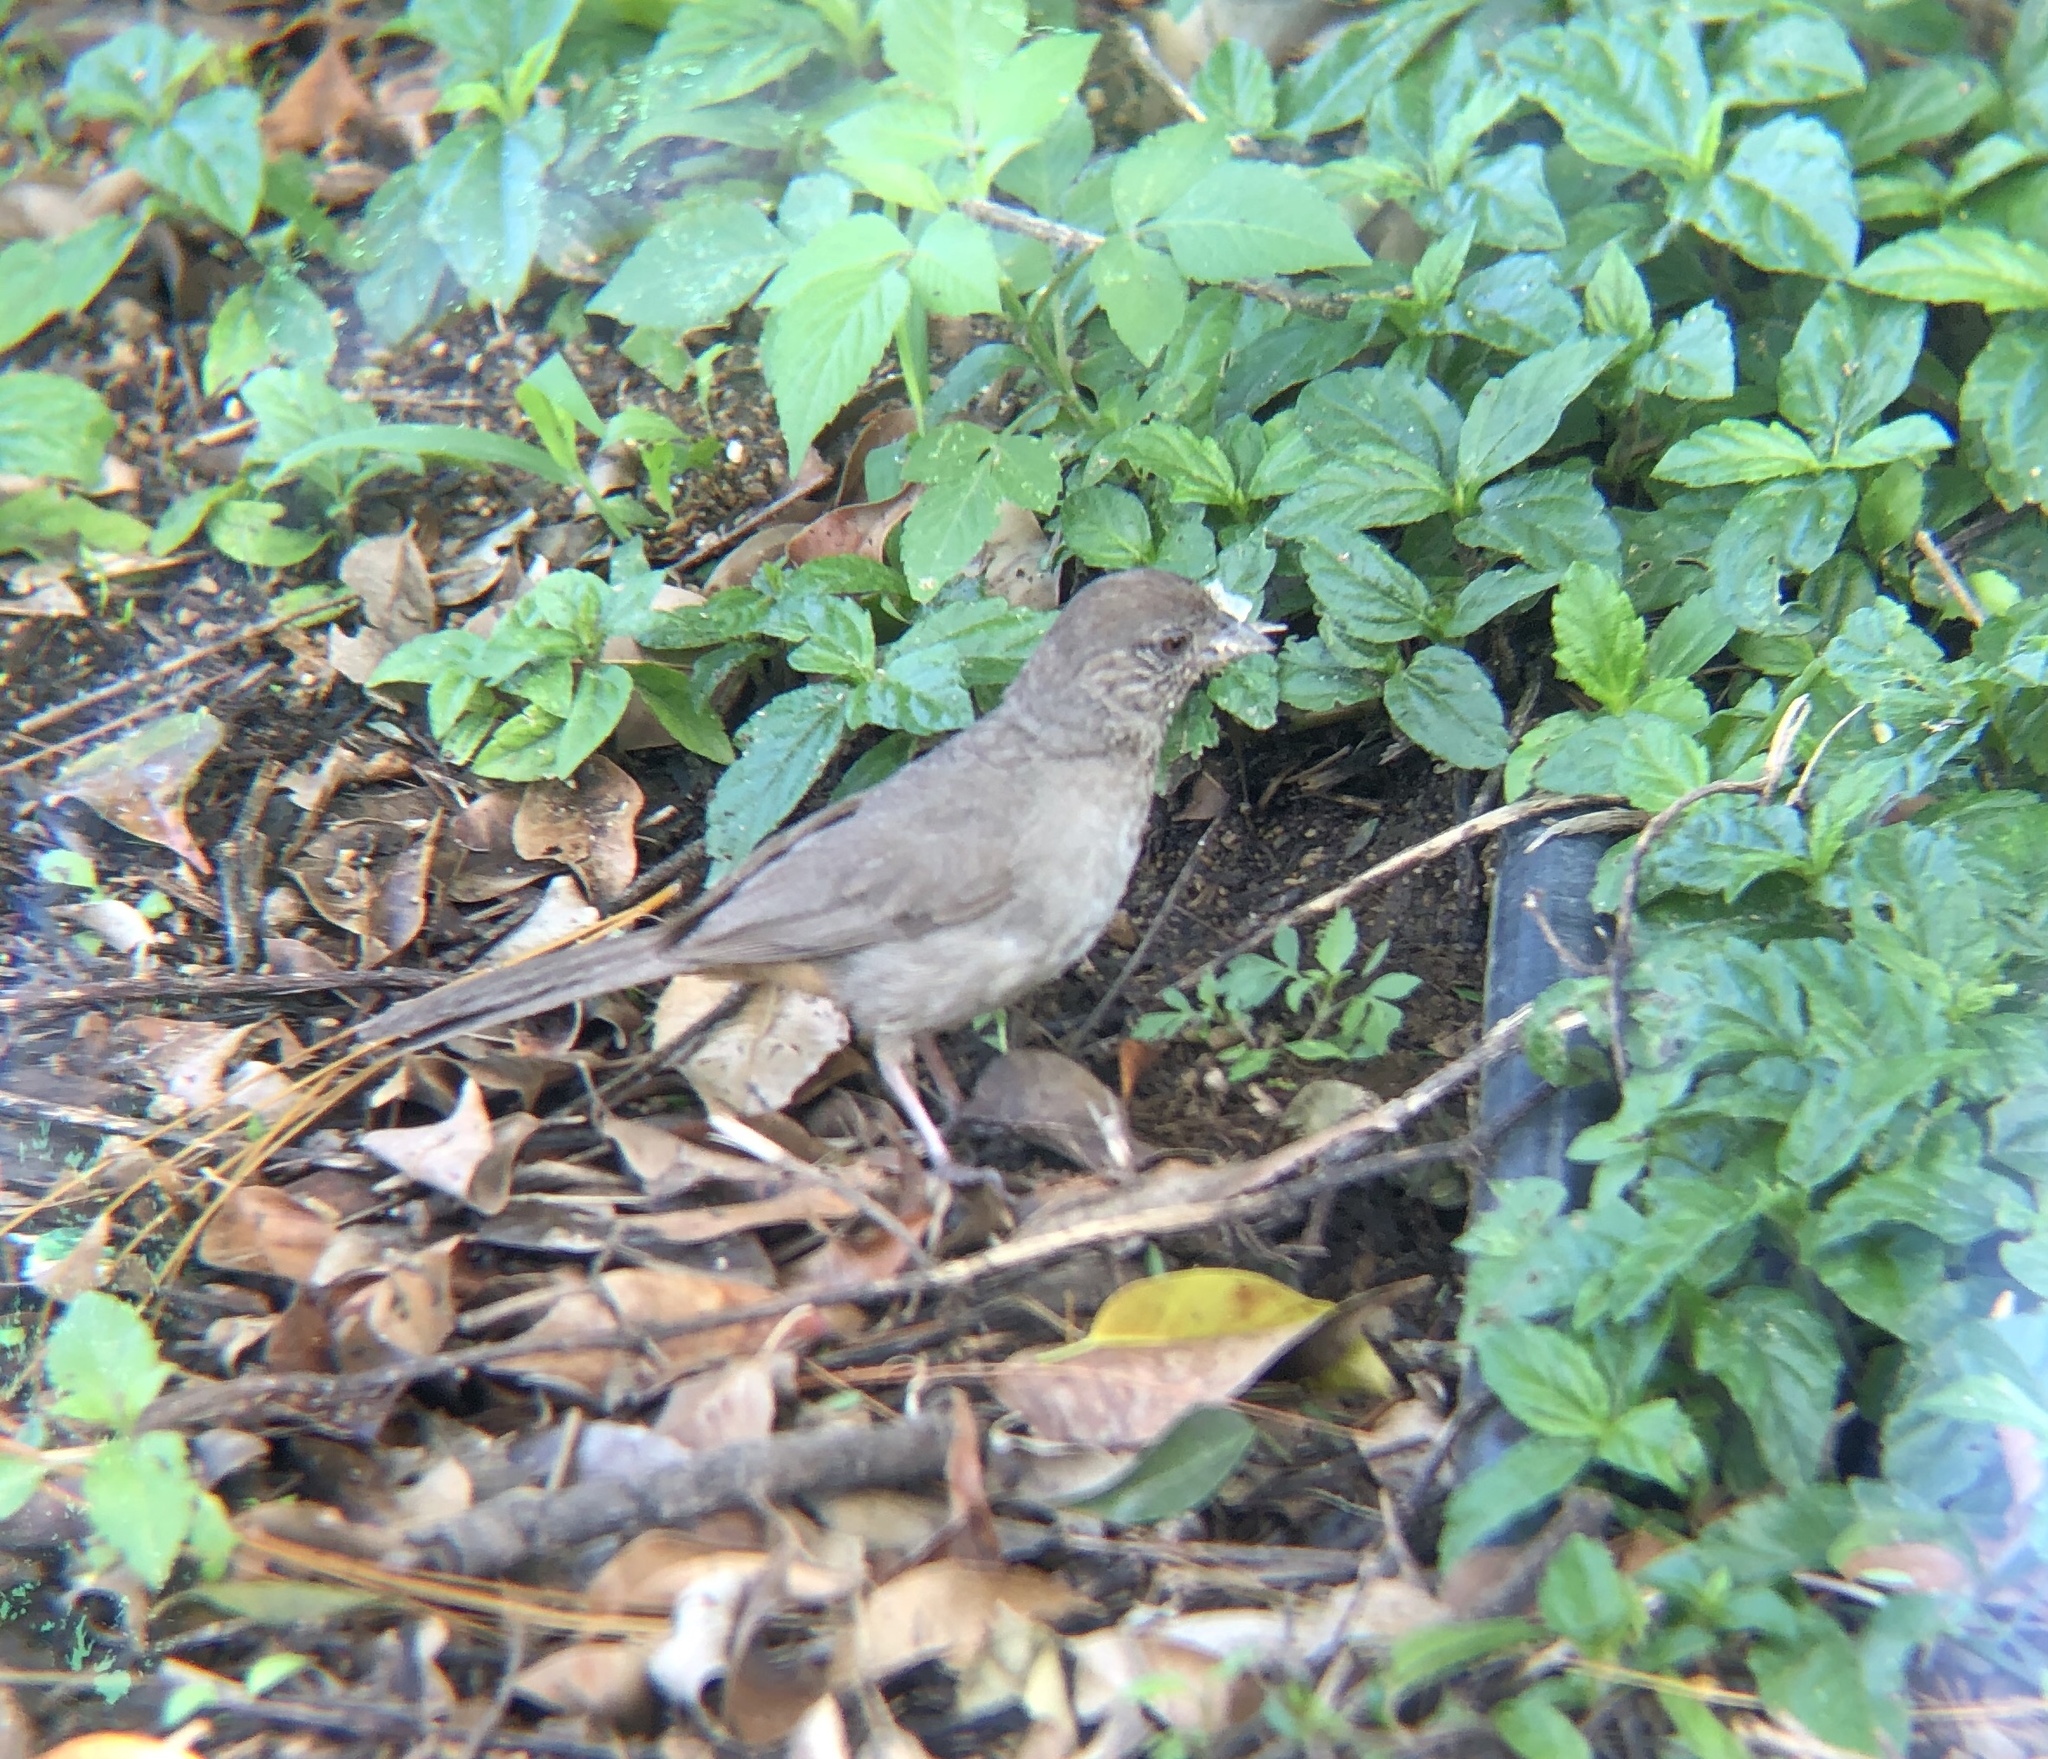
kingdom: Animalia
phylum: Chordata
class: Aves
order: Passeriformes
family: Passerellidae
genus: Melozone
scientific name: Melozone fusca
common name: Canyon towhee
